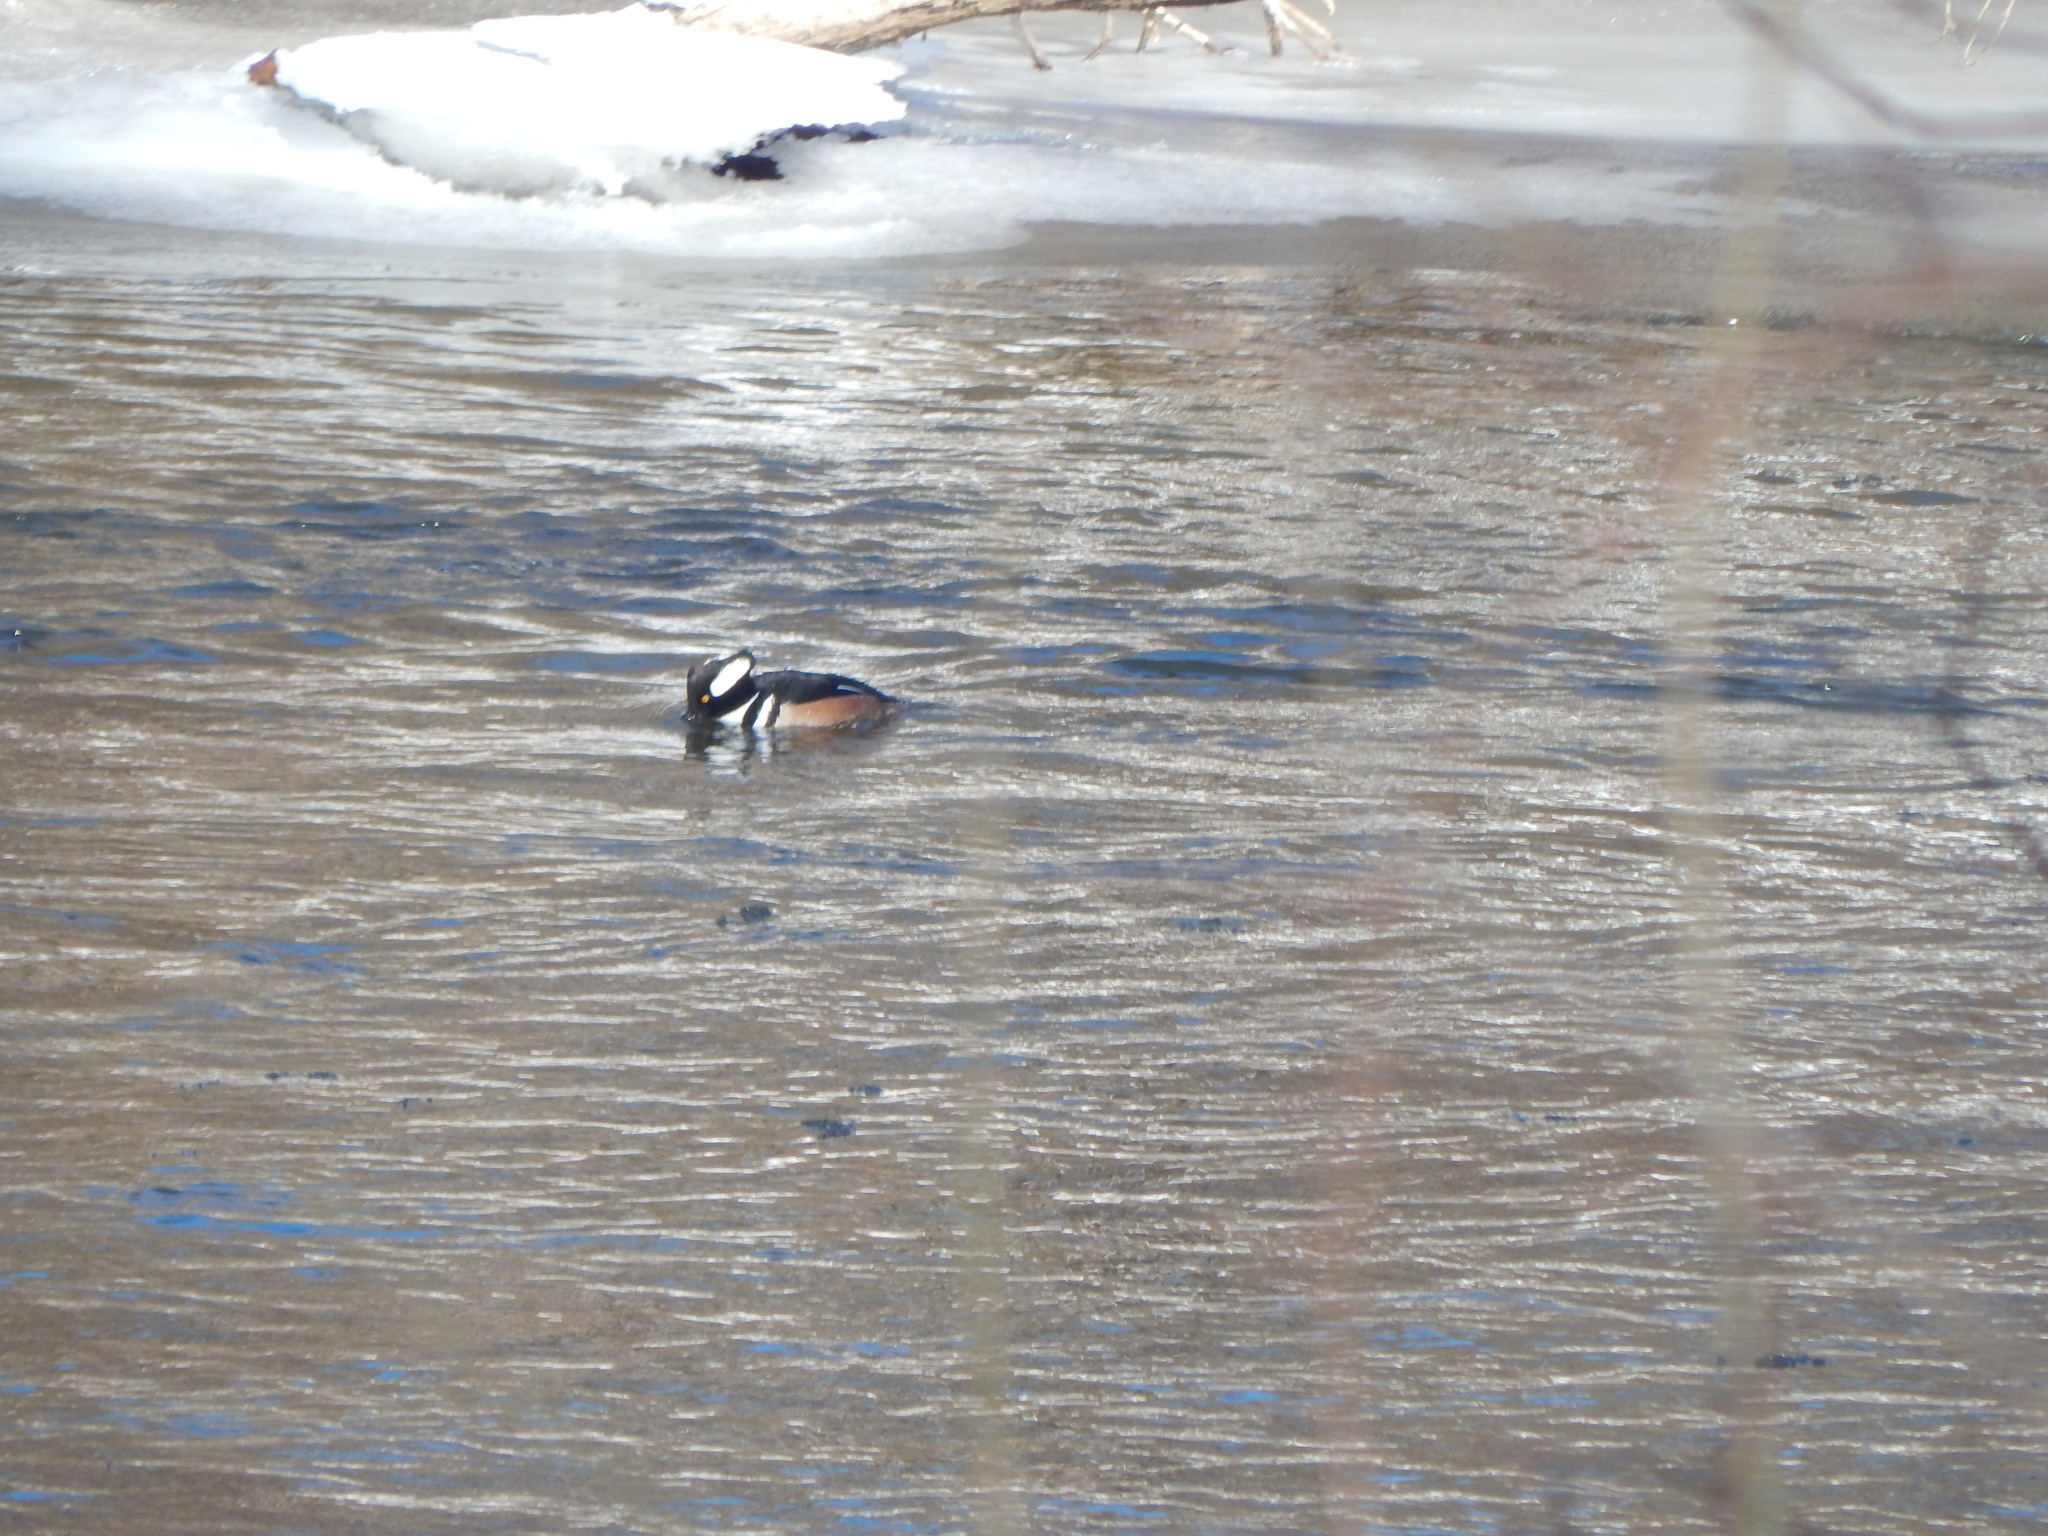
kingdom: Animalia
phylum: Chordata
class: Aves
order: Anseriformes
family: Anatidae
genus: Lophodytes
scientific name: Lophodytes cucullatus
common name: Hooded merganser
